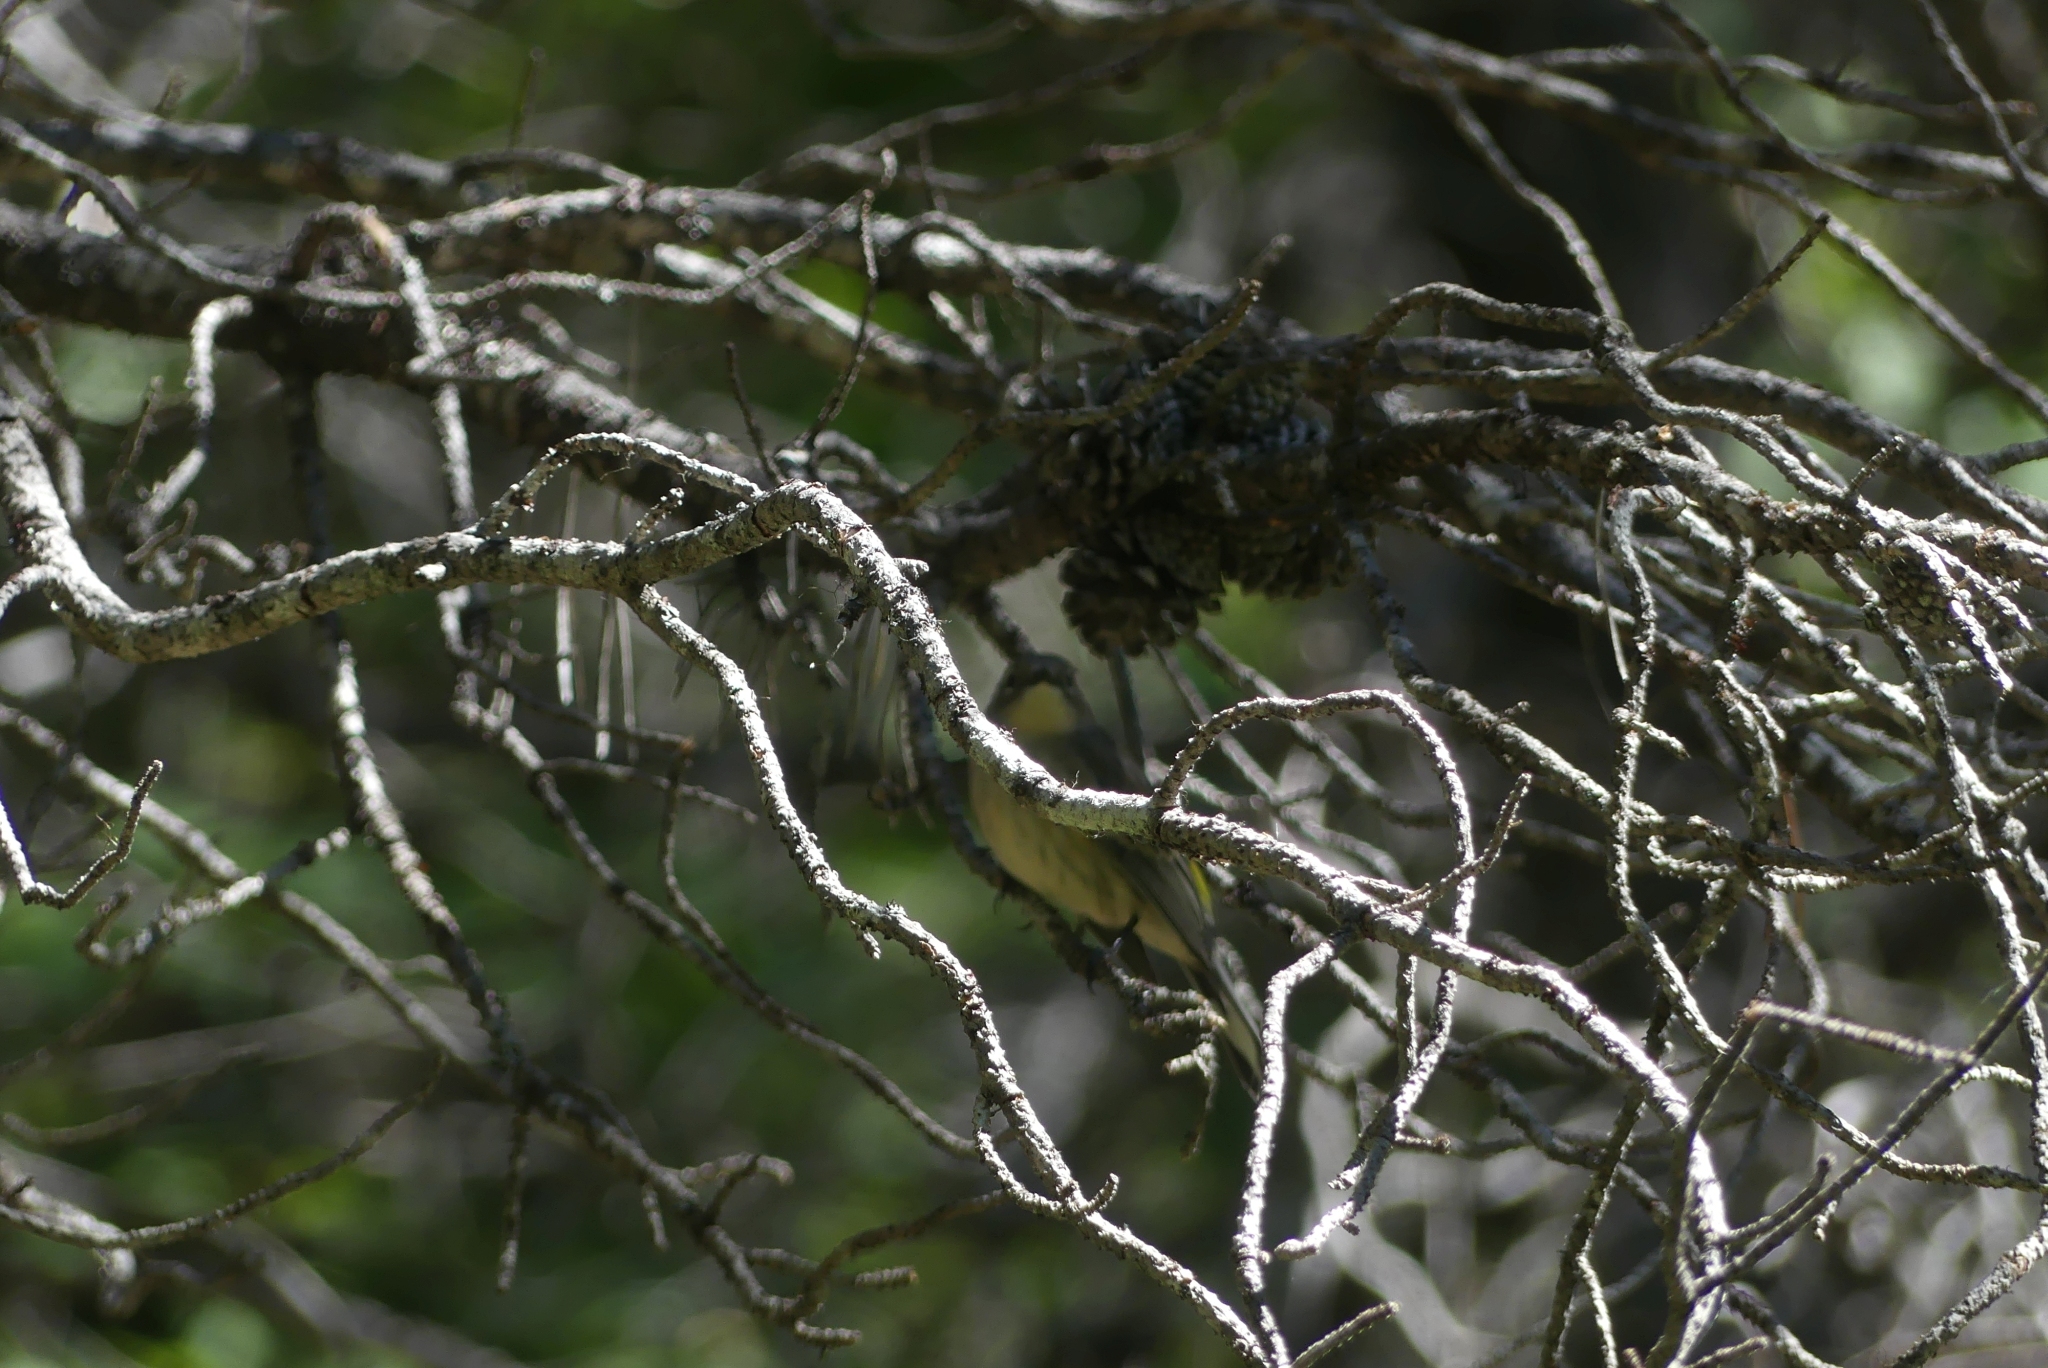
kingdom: Animalia
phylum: Chordata
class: Aves
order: Passeriformes
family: Parulidae
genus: Setophaga
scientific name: Setophaga coronata
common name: Myrtle warbler
